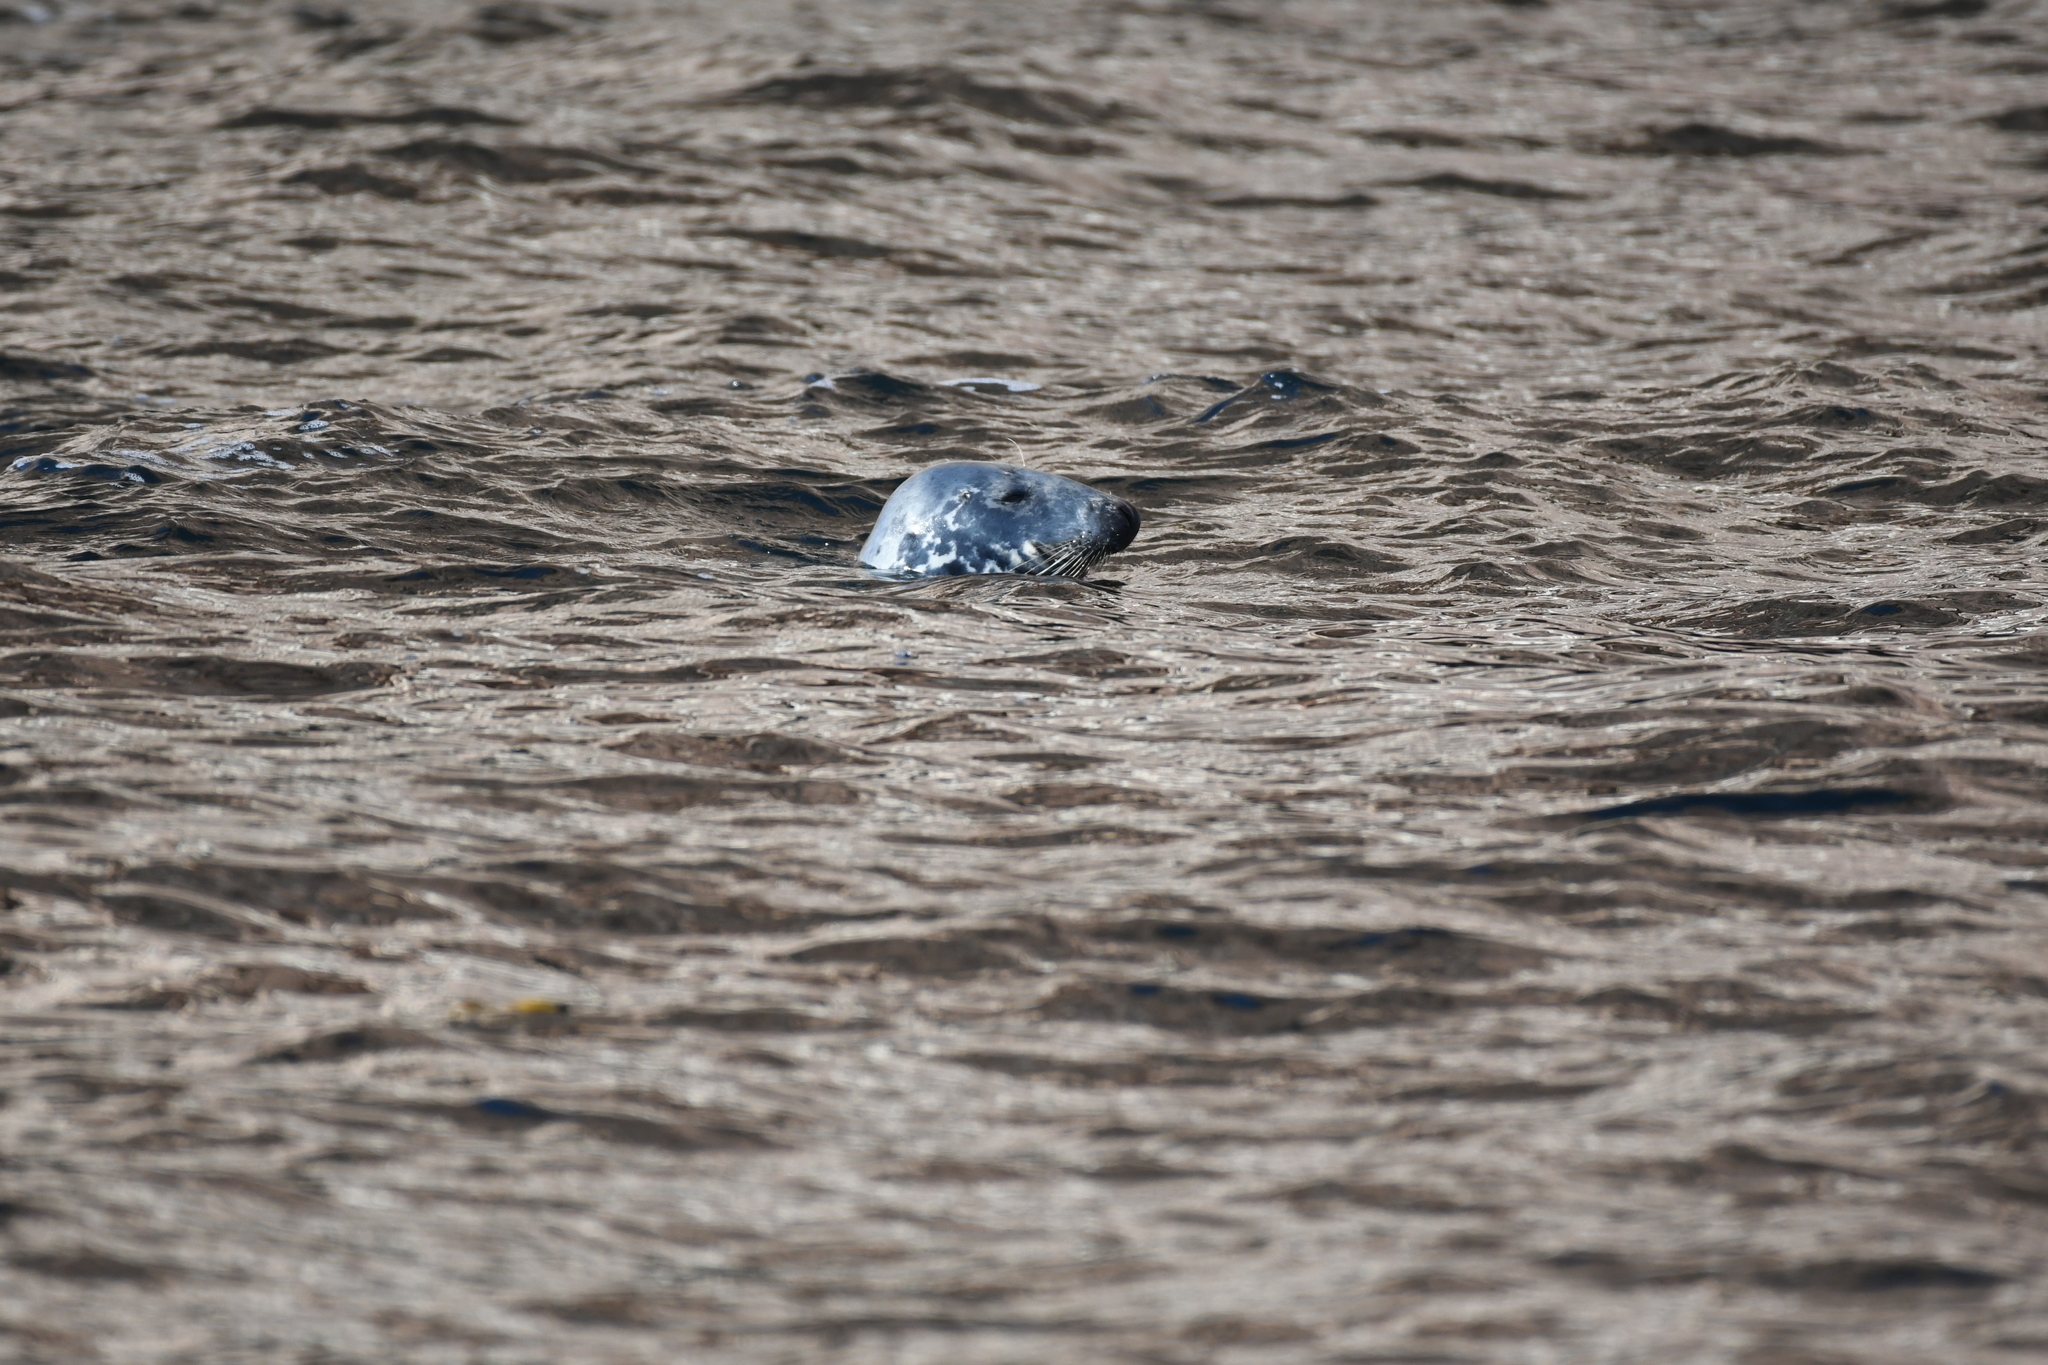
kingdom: Animalia
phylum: Chordata
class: Mammalia
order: Carnivora
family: Phocidae
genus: Halichoerus
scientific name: Halichoerus grypus
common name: Grey seal
